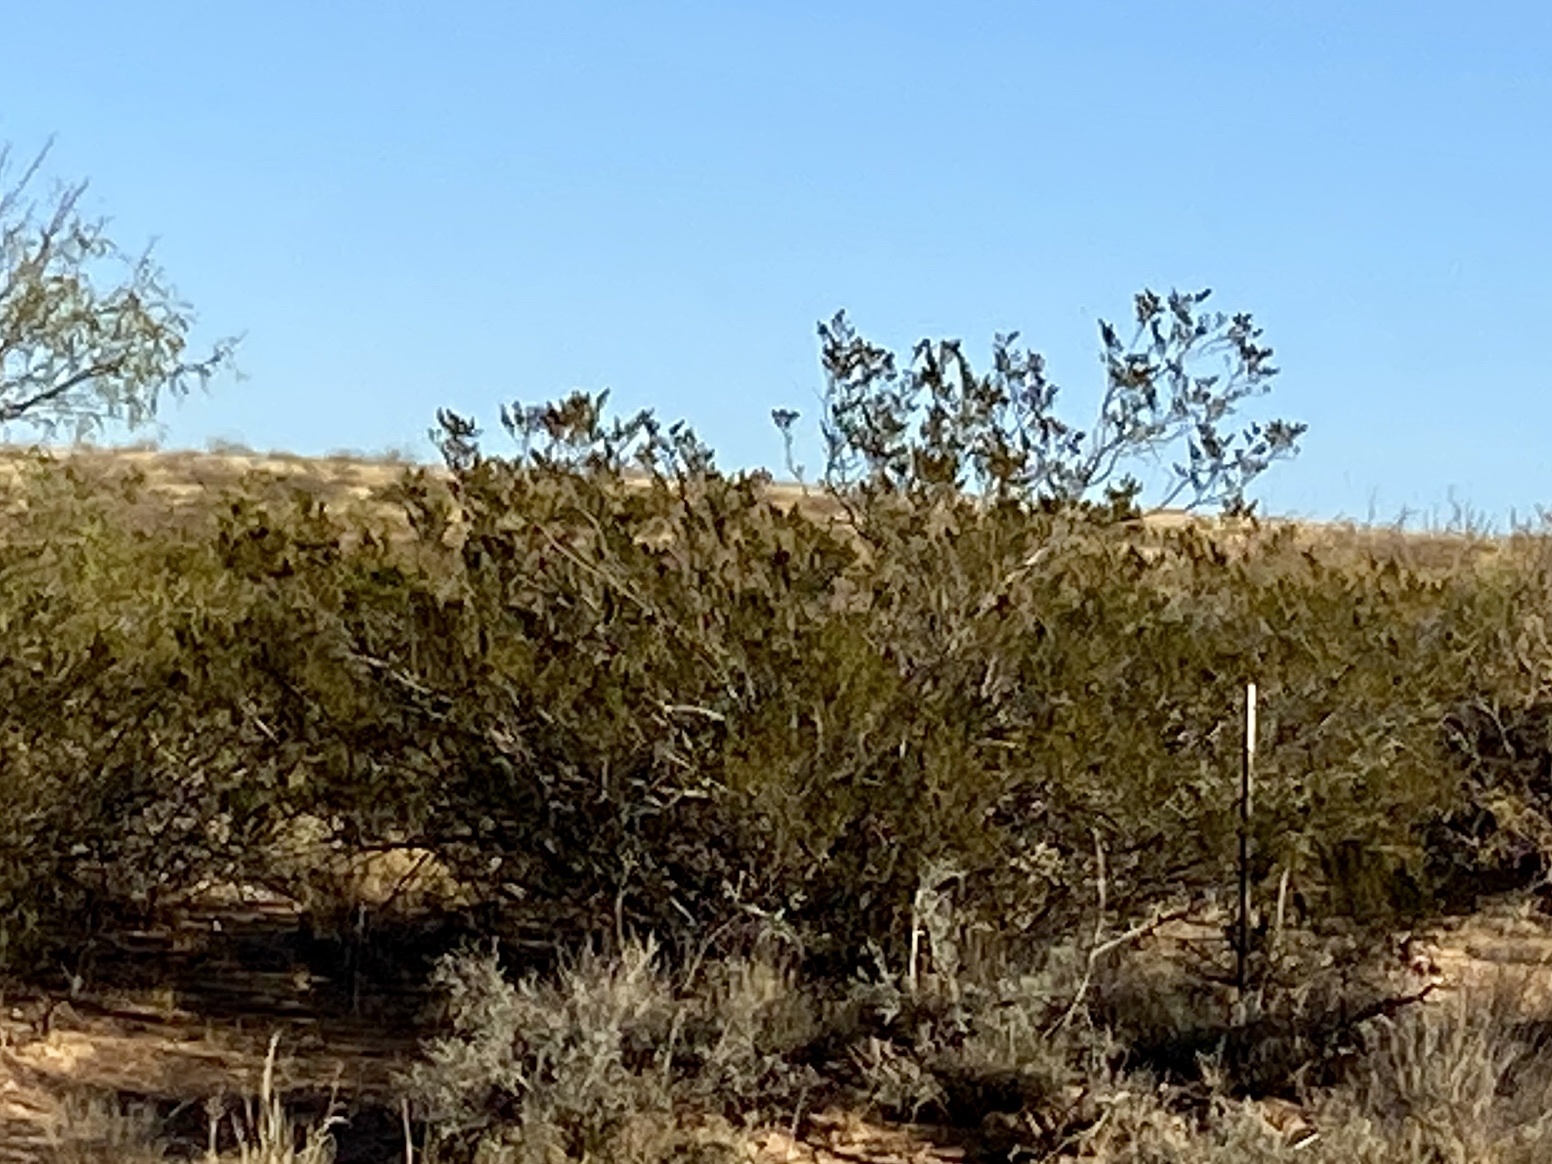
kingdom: Plantae
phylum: Tracheophyta
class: Magnoliopsida
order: Zygophyllales
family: Zygophyllaceae
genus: Larrea
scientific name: Larrea tridentata
